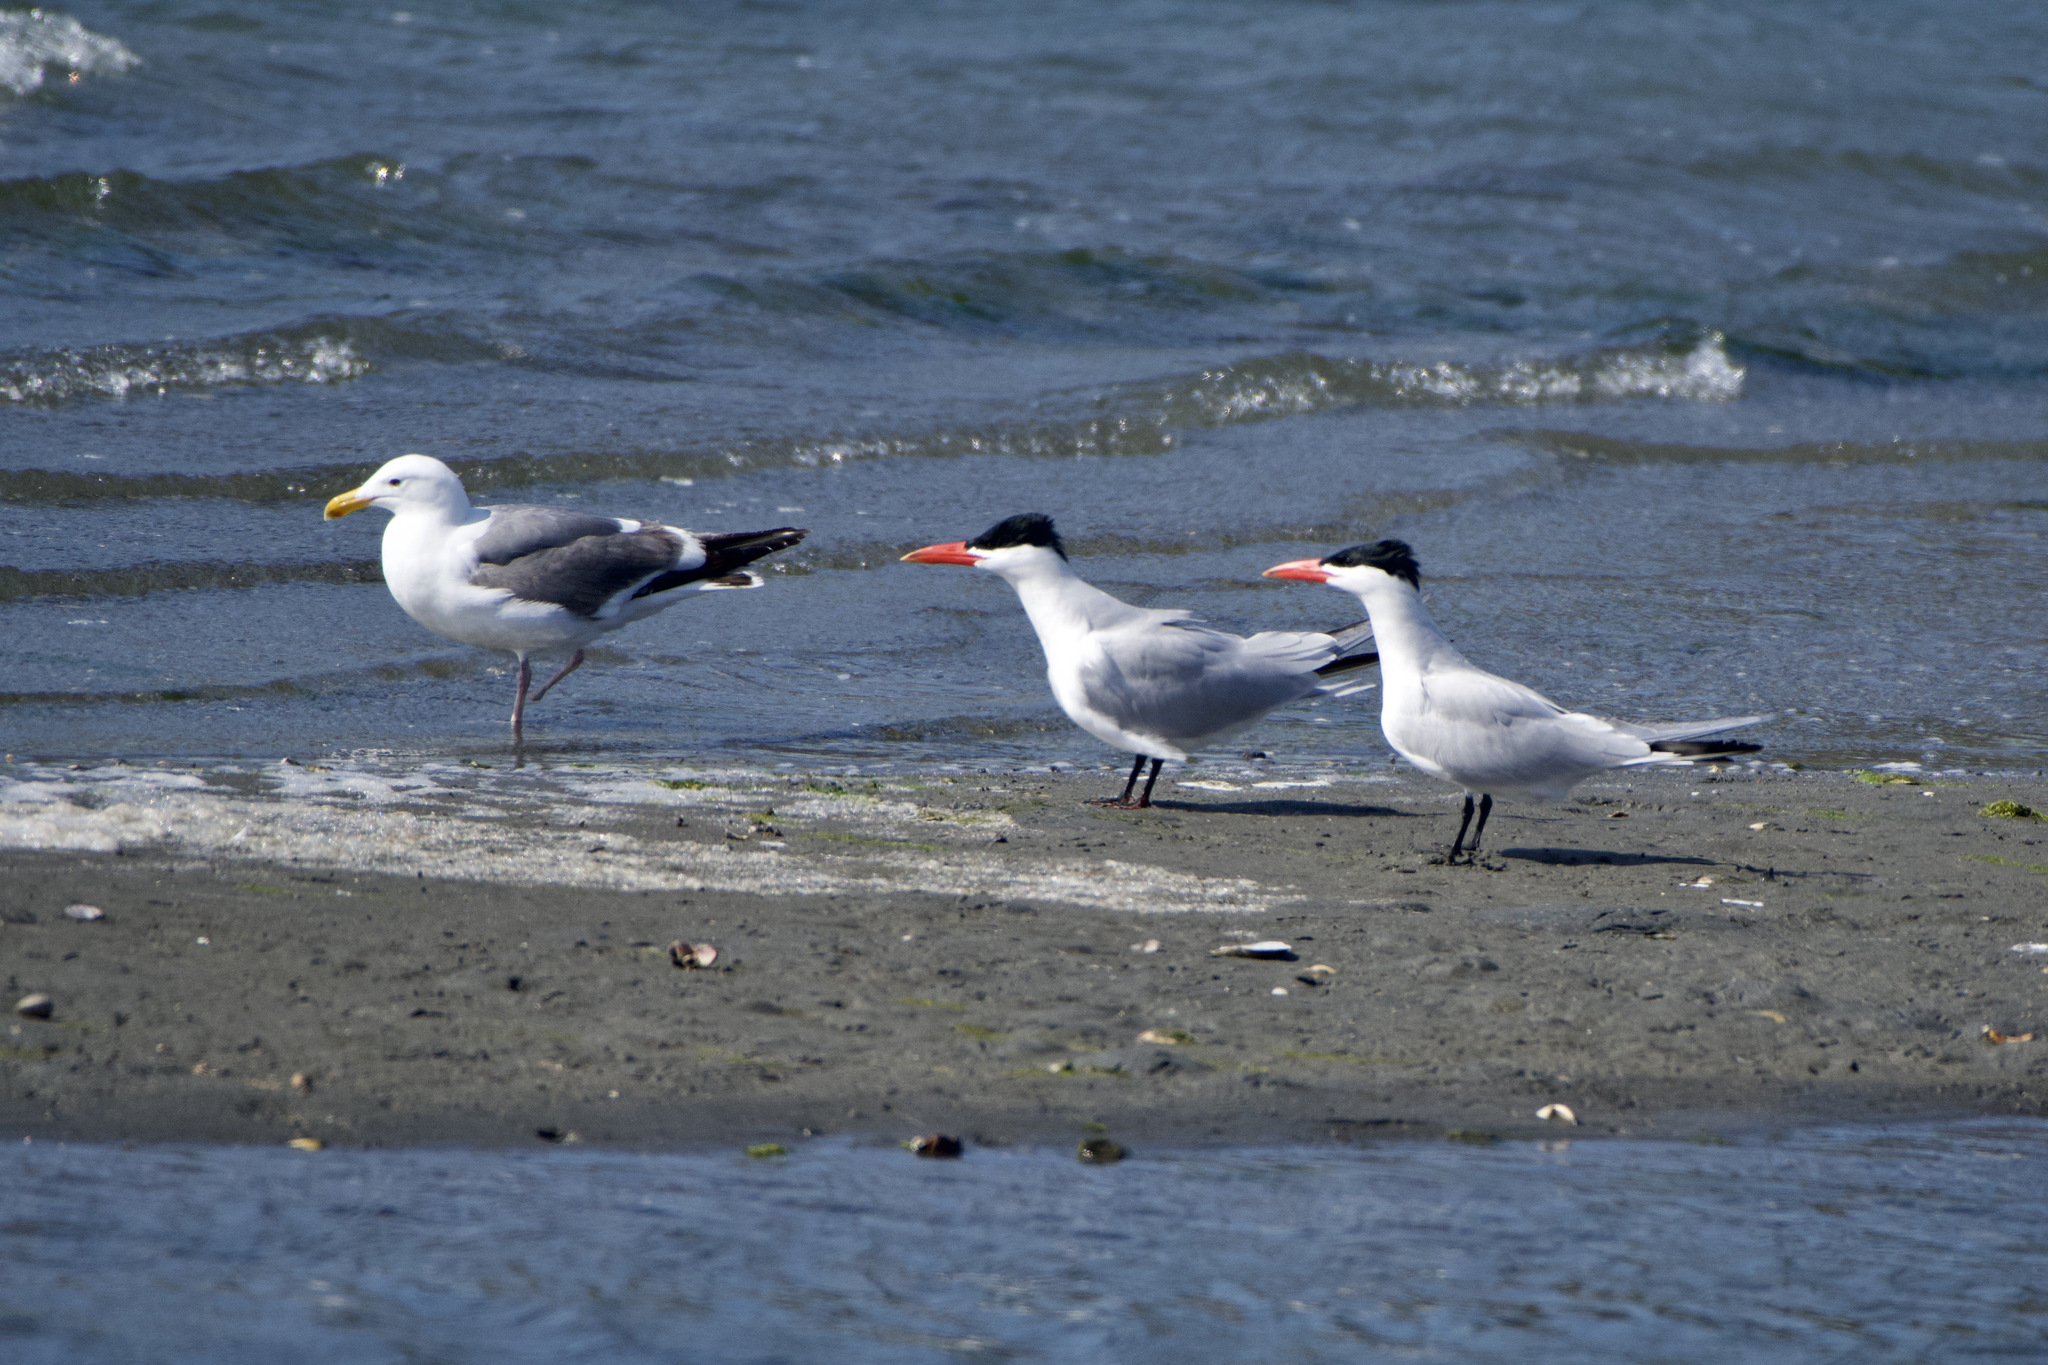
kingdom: Animalia
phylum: Chordata
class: Aves
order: Charadriiformes
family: Laridae
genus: Hydroprogne
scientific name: Hydroprogne caspia
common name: Caspian tern
